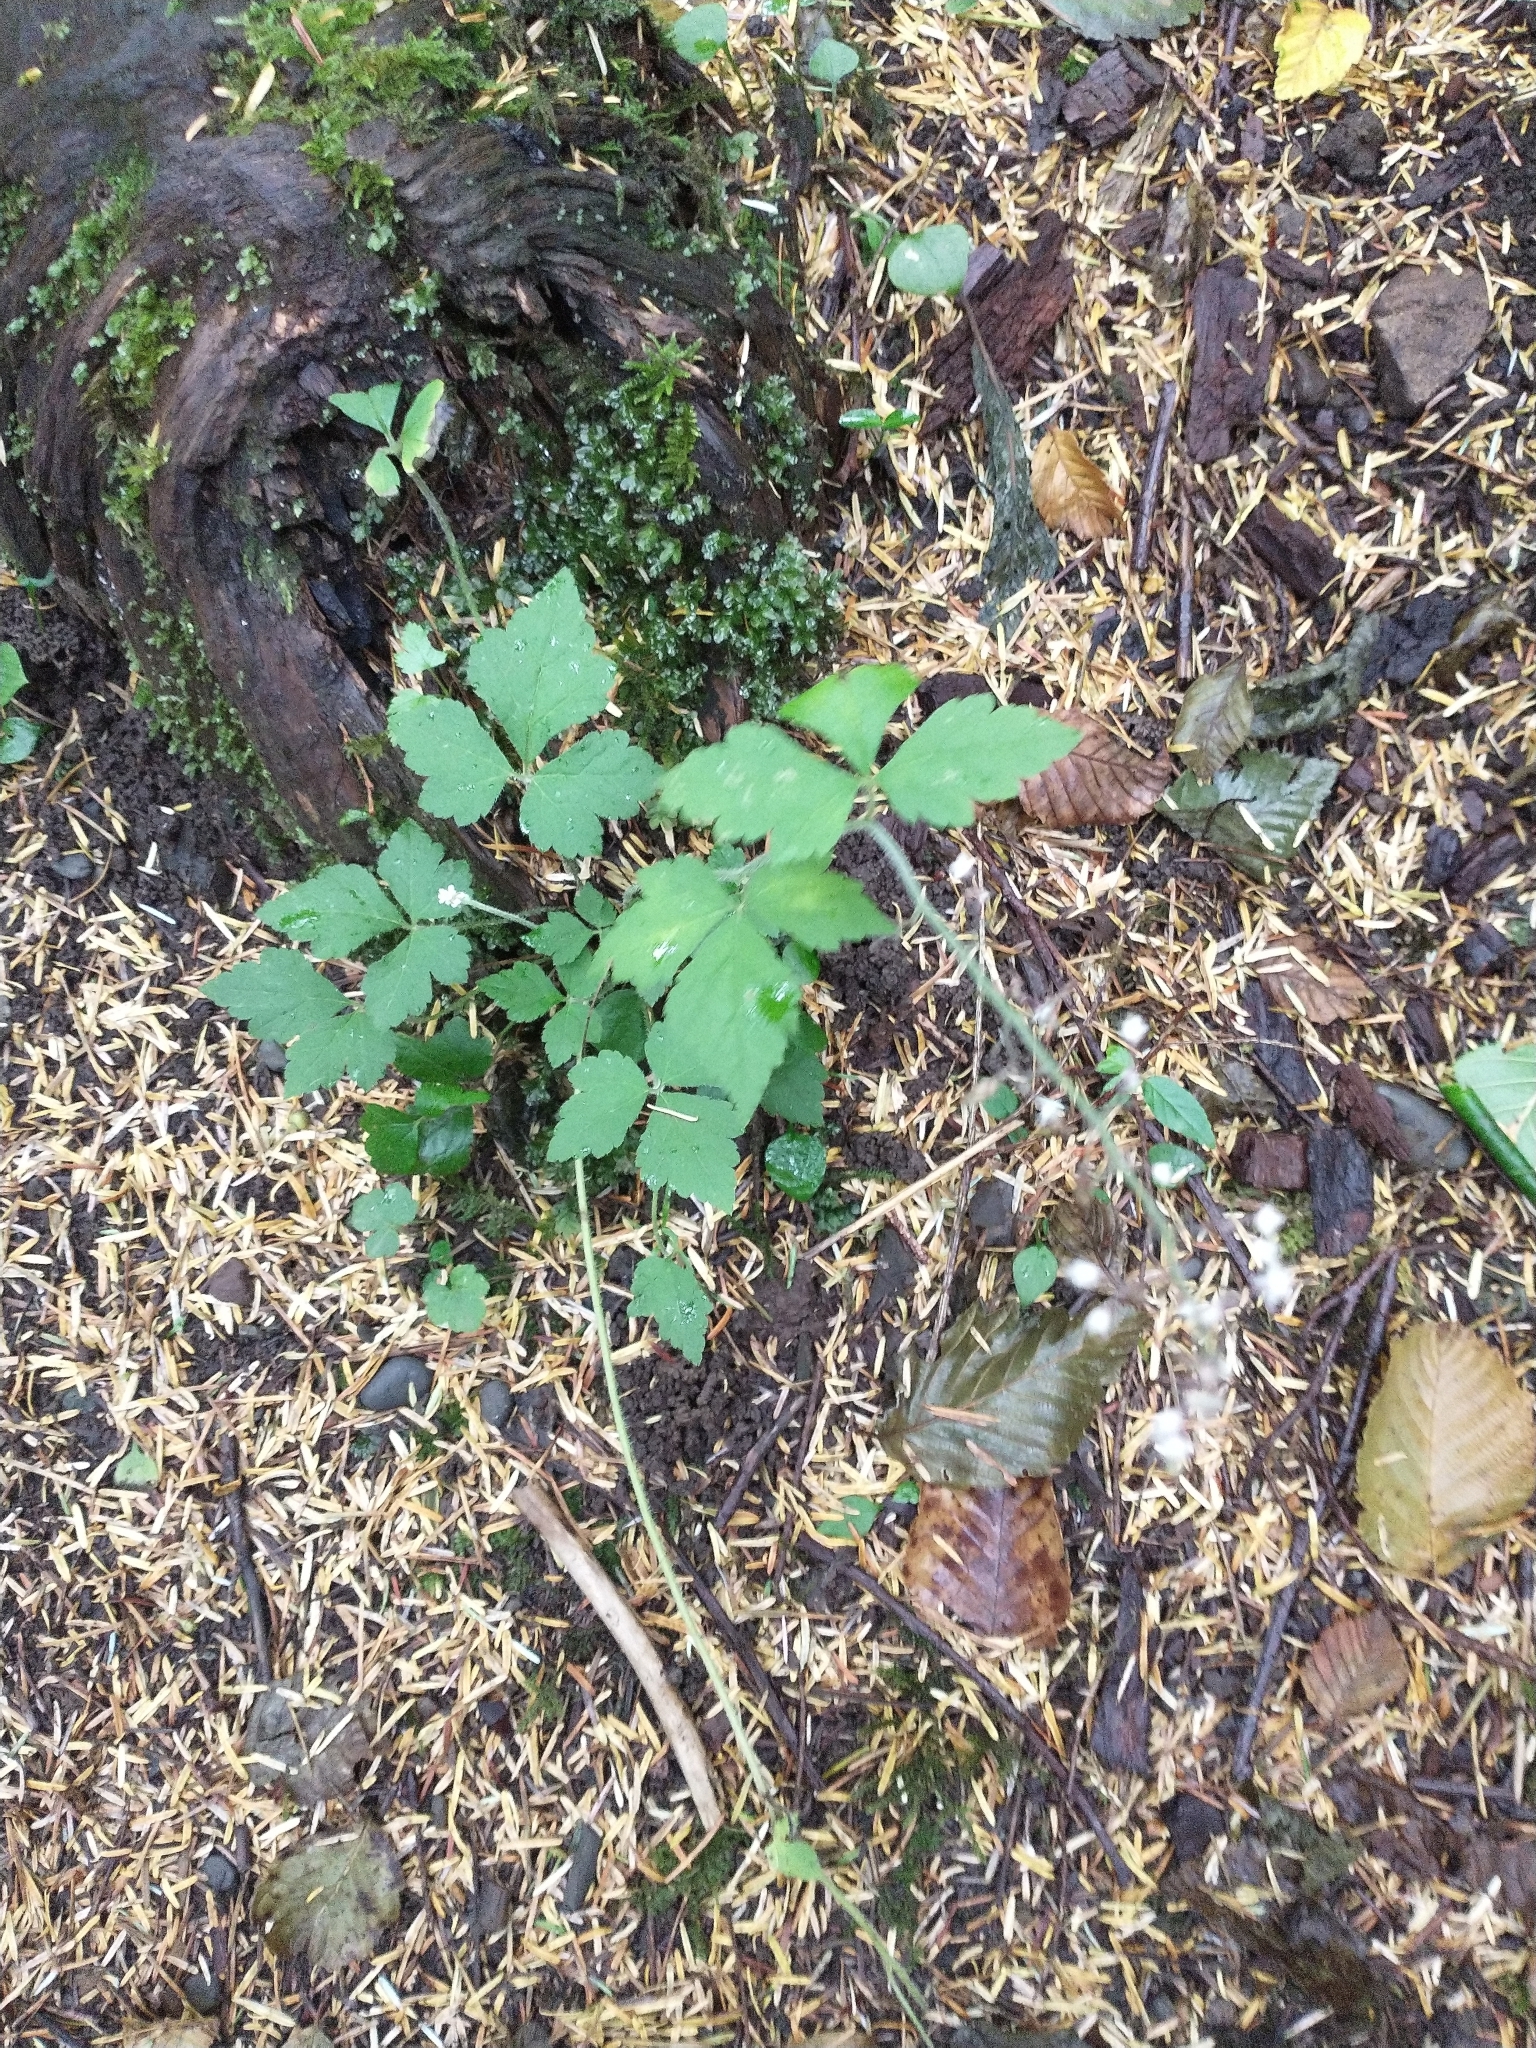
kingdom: Plantae
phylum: Tracheophyta
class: Magnoliopsida
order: Saxifragales
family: Saxifragaceae
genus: Tiarella
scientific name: Tiarella trifoliata
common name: Sugar-scoop
